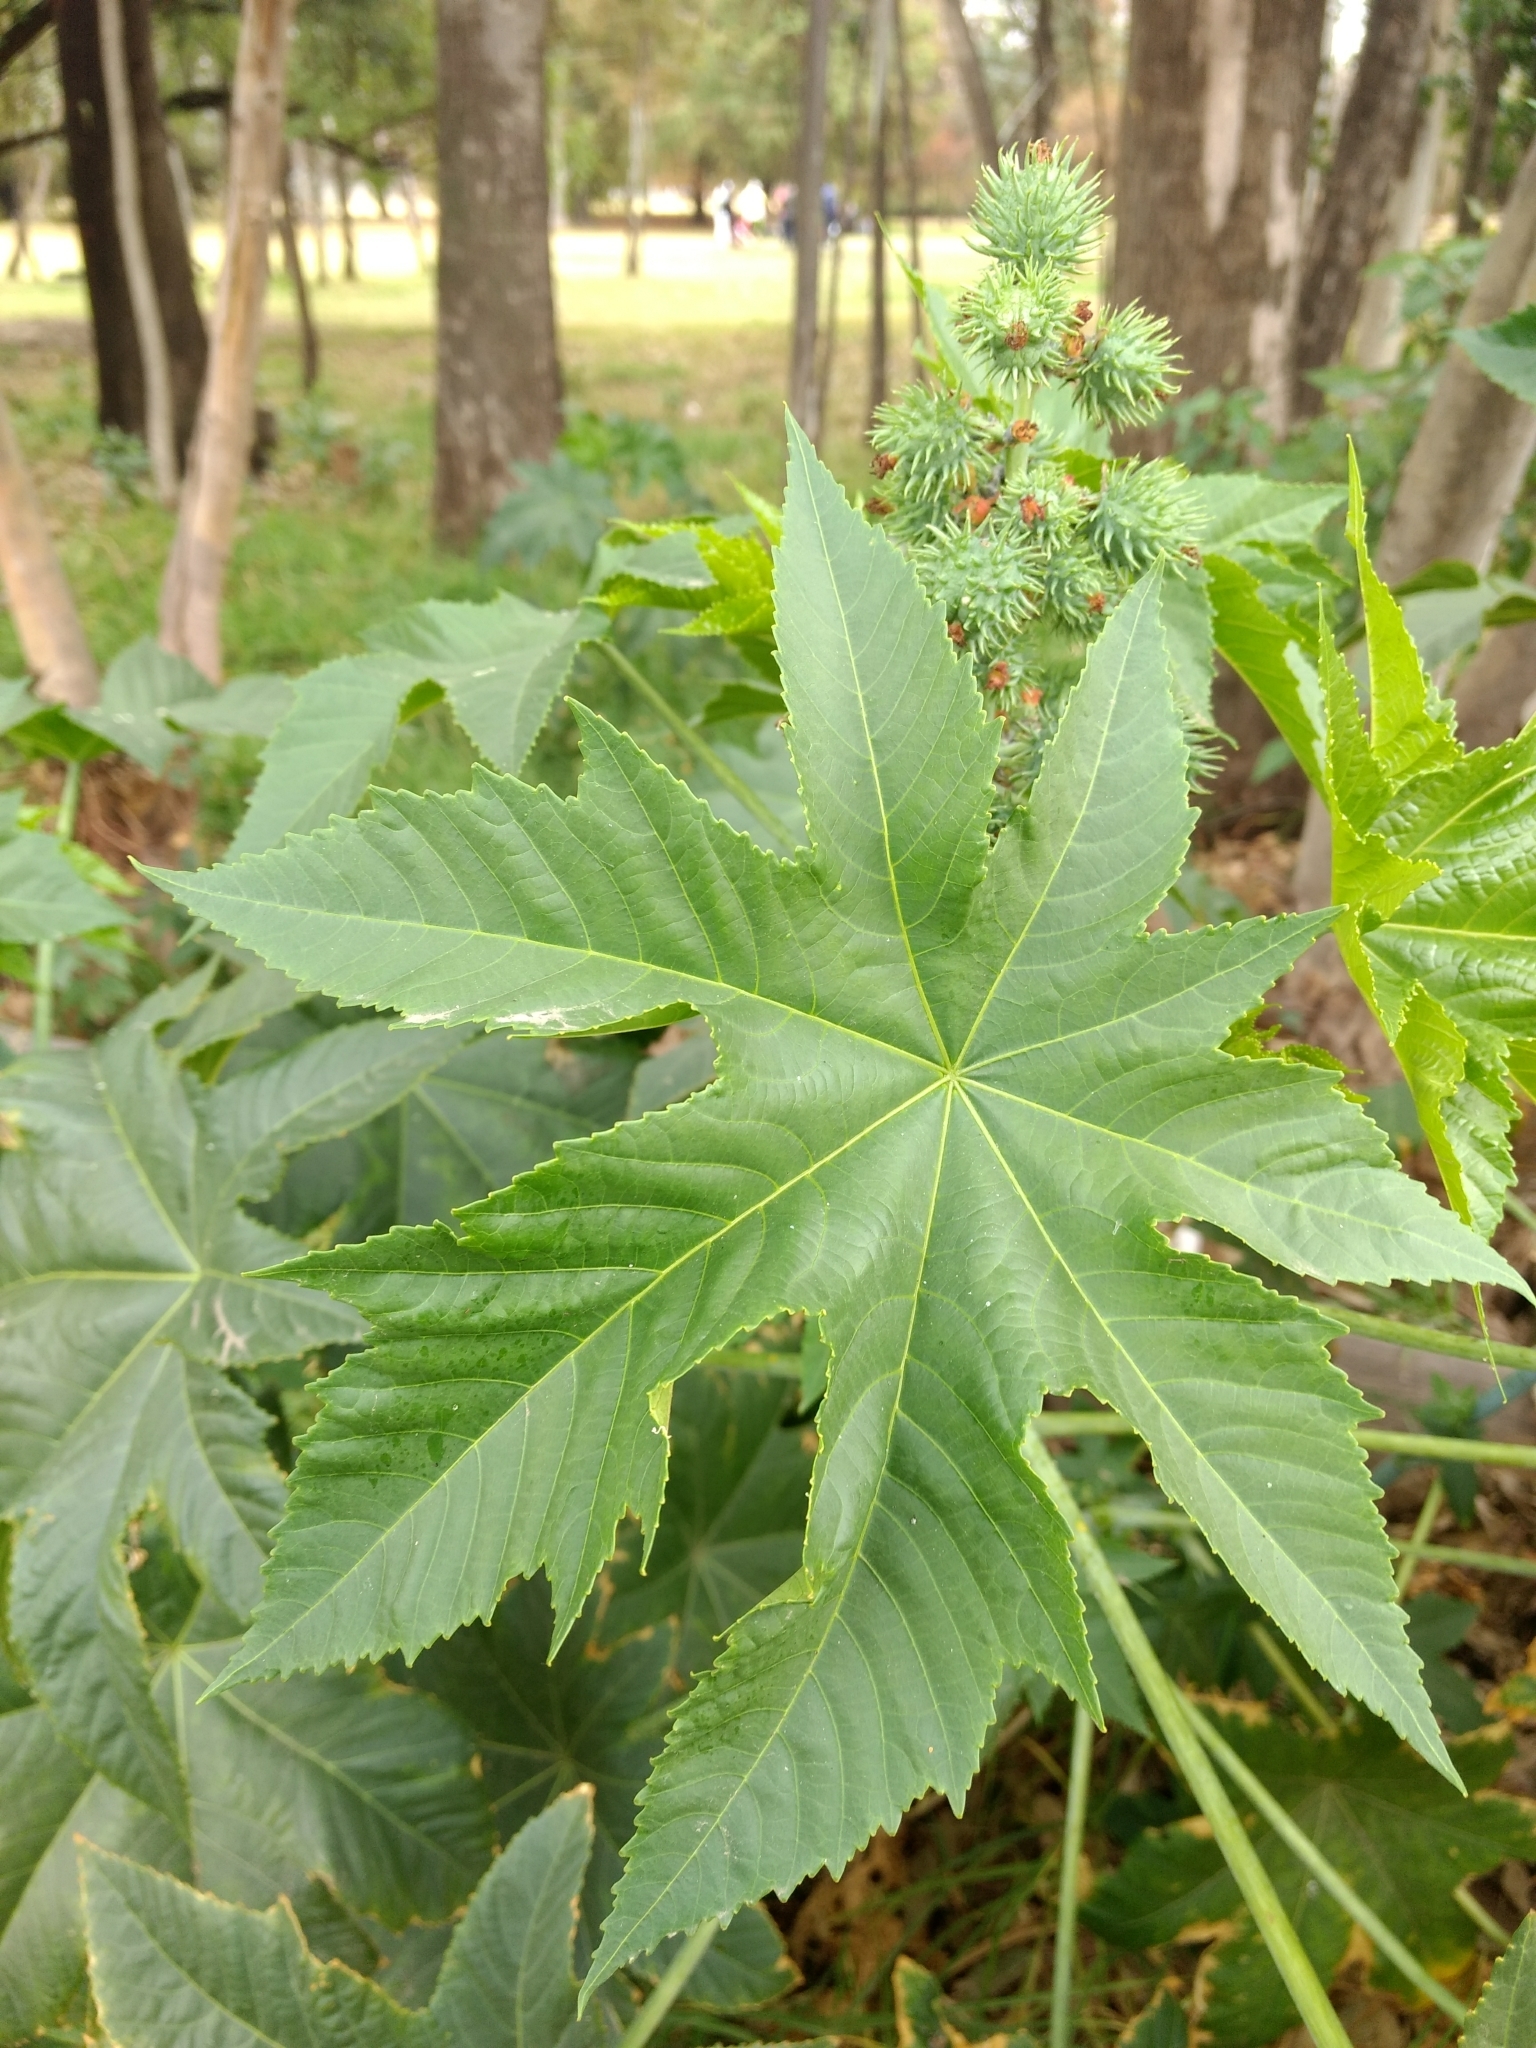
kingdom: Plantae
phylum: Tracheophyta
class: Magnoliopsida
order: Malpighiales
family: Euphorbiaceae
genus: Ricinus
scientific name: Ricinus communis
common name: Castor-oil-plant
